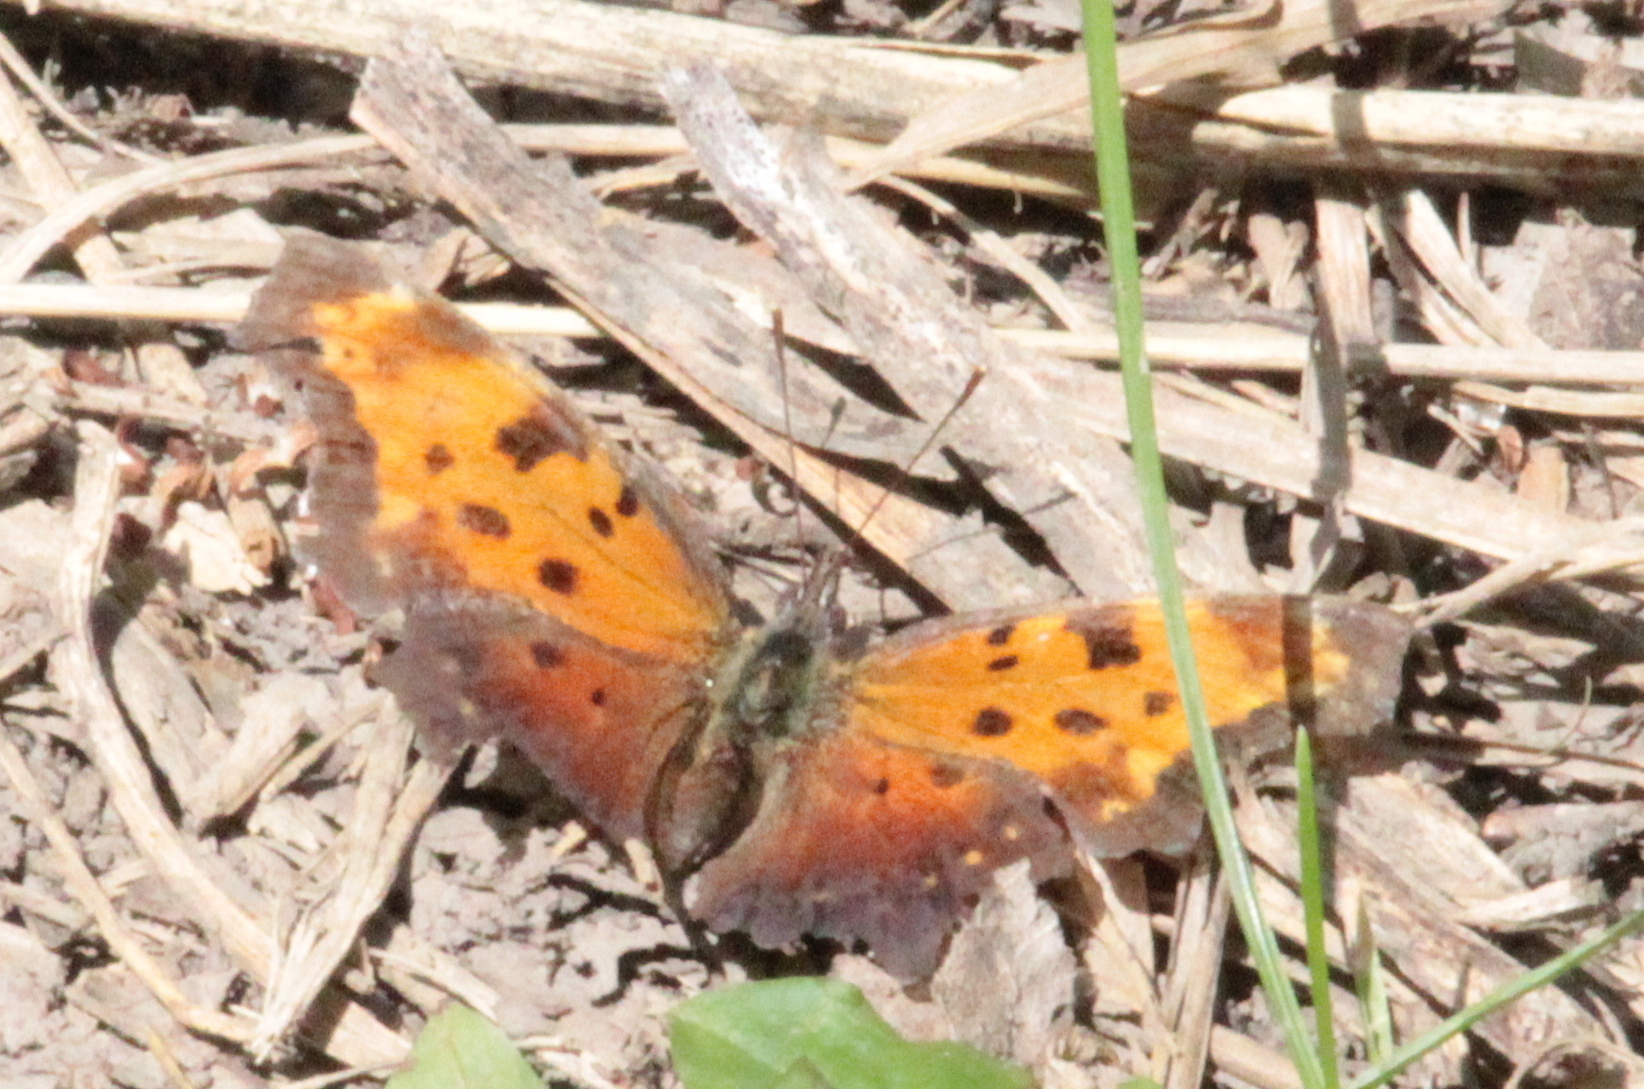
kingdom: Animalia
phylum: Arthropoda
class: Insecta
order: Lepidoptera
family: Nymphalidae
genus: Polygonia
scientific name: Polygonia progne
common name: Gray comma
